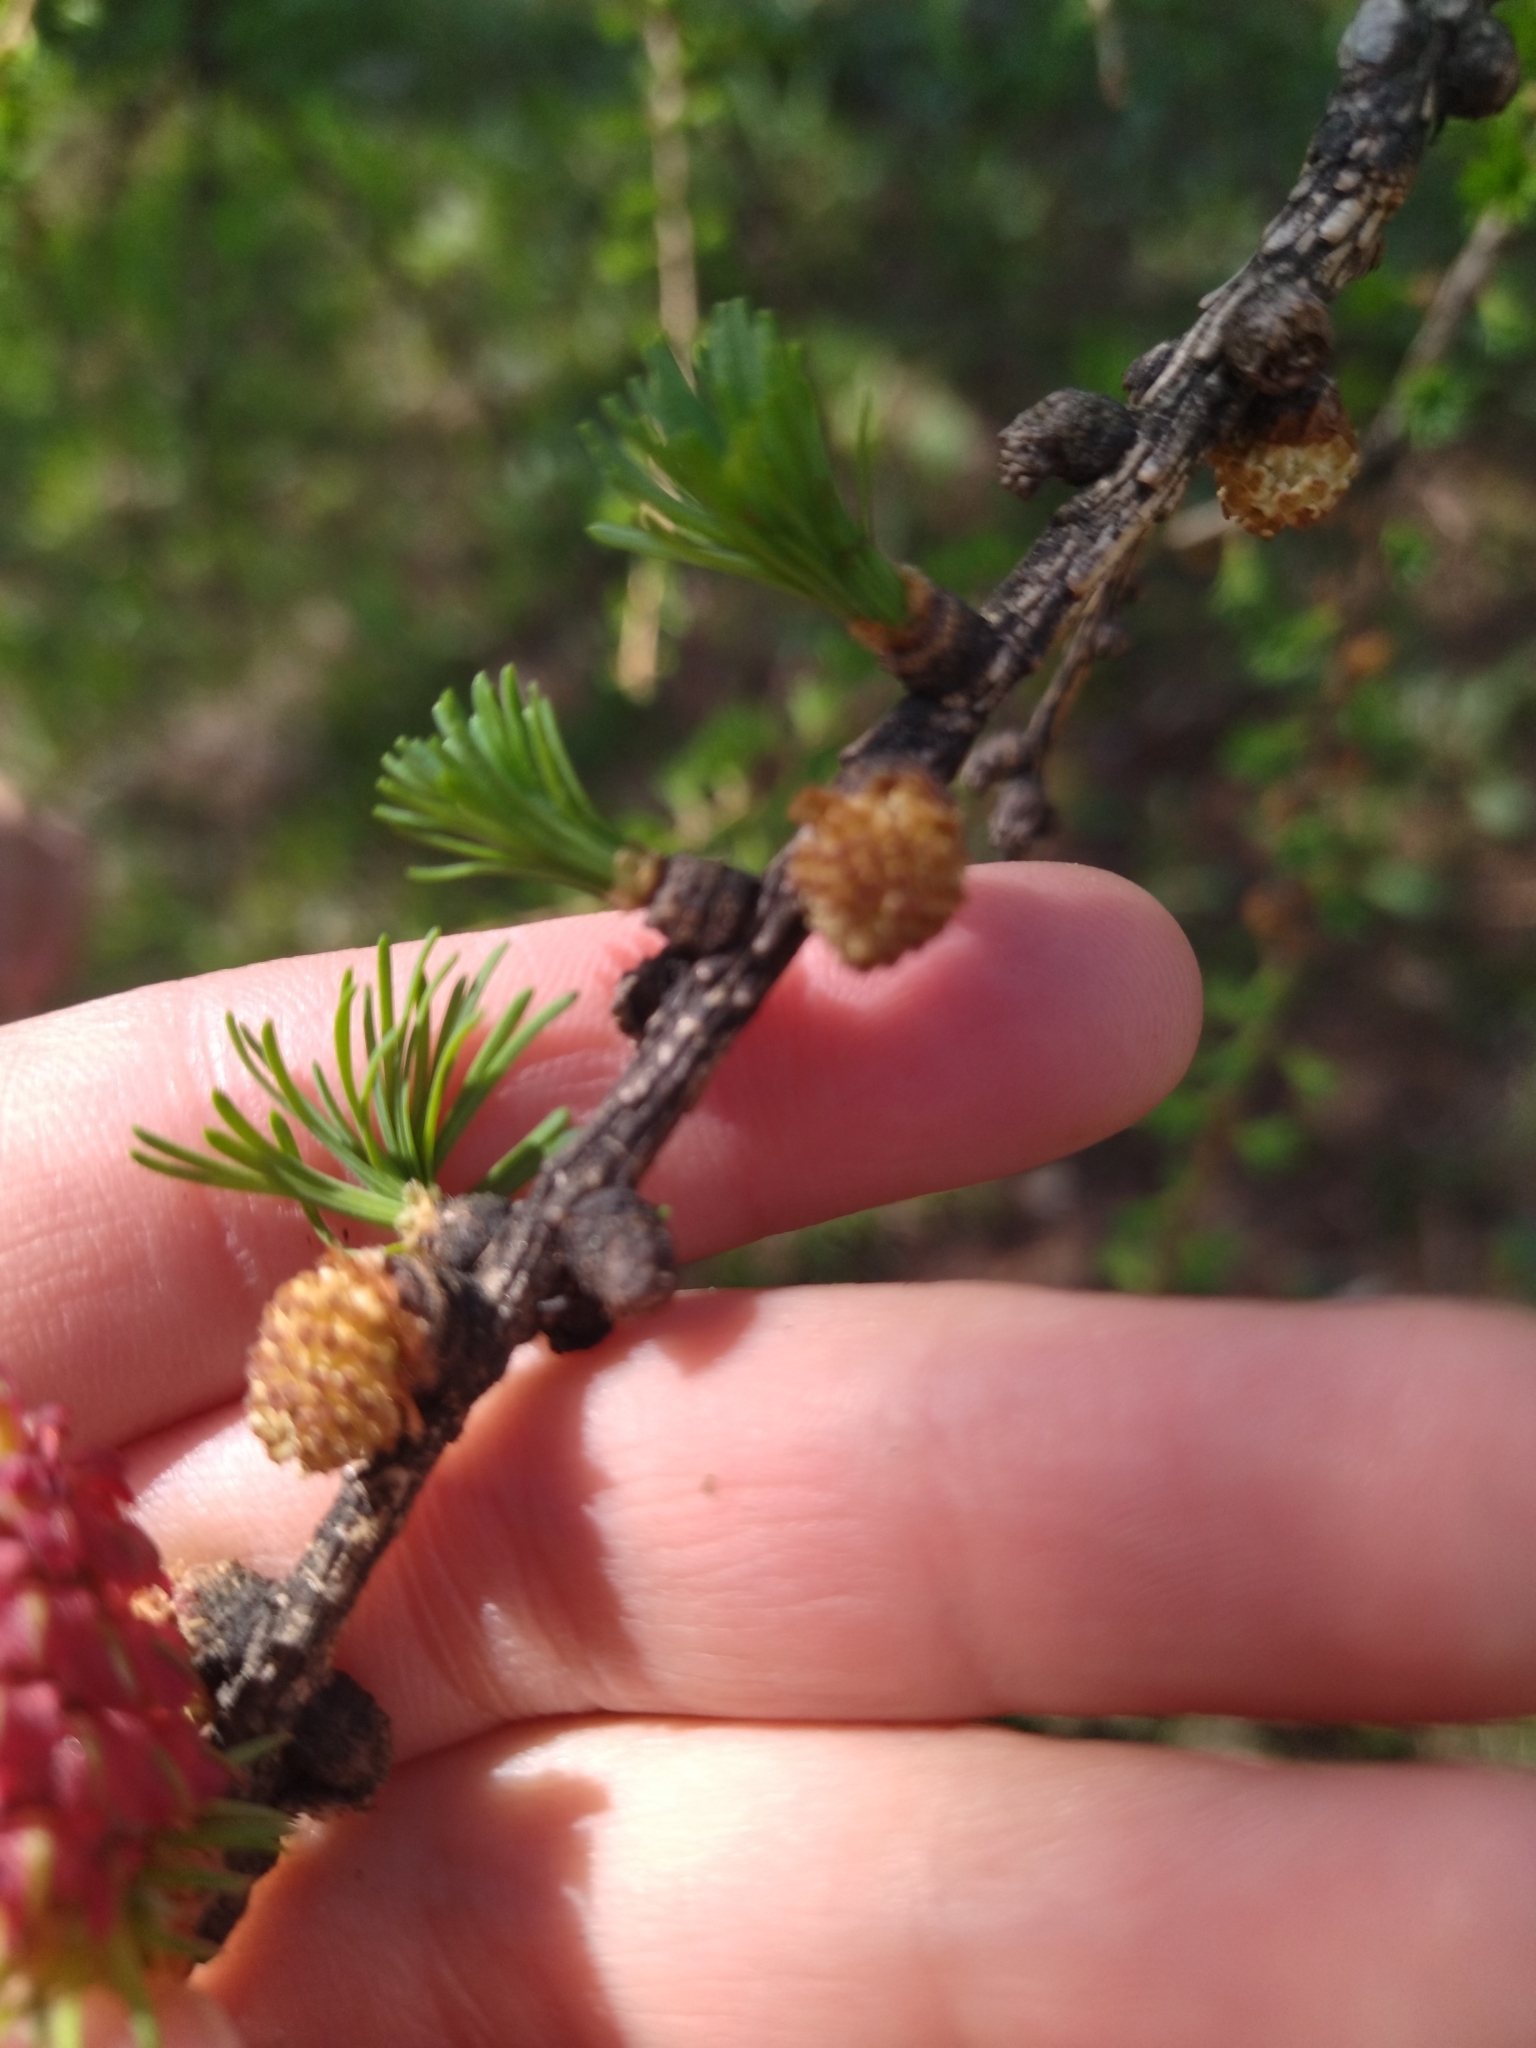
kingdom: Plantae
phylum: Tracheophyta
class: Pinopsida
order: Pinales
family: Pinaceae
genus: Larix
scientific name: Larix decidua
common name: European larch
